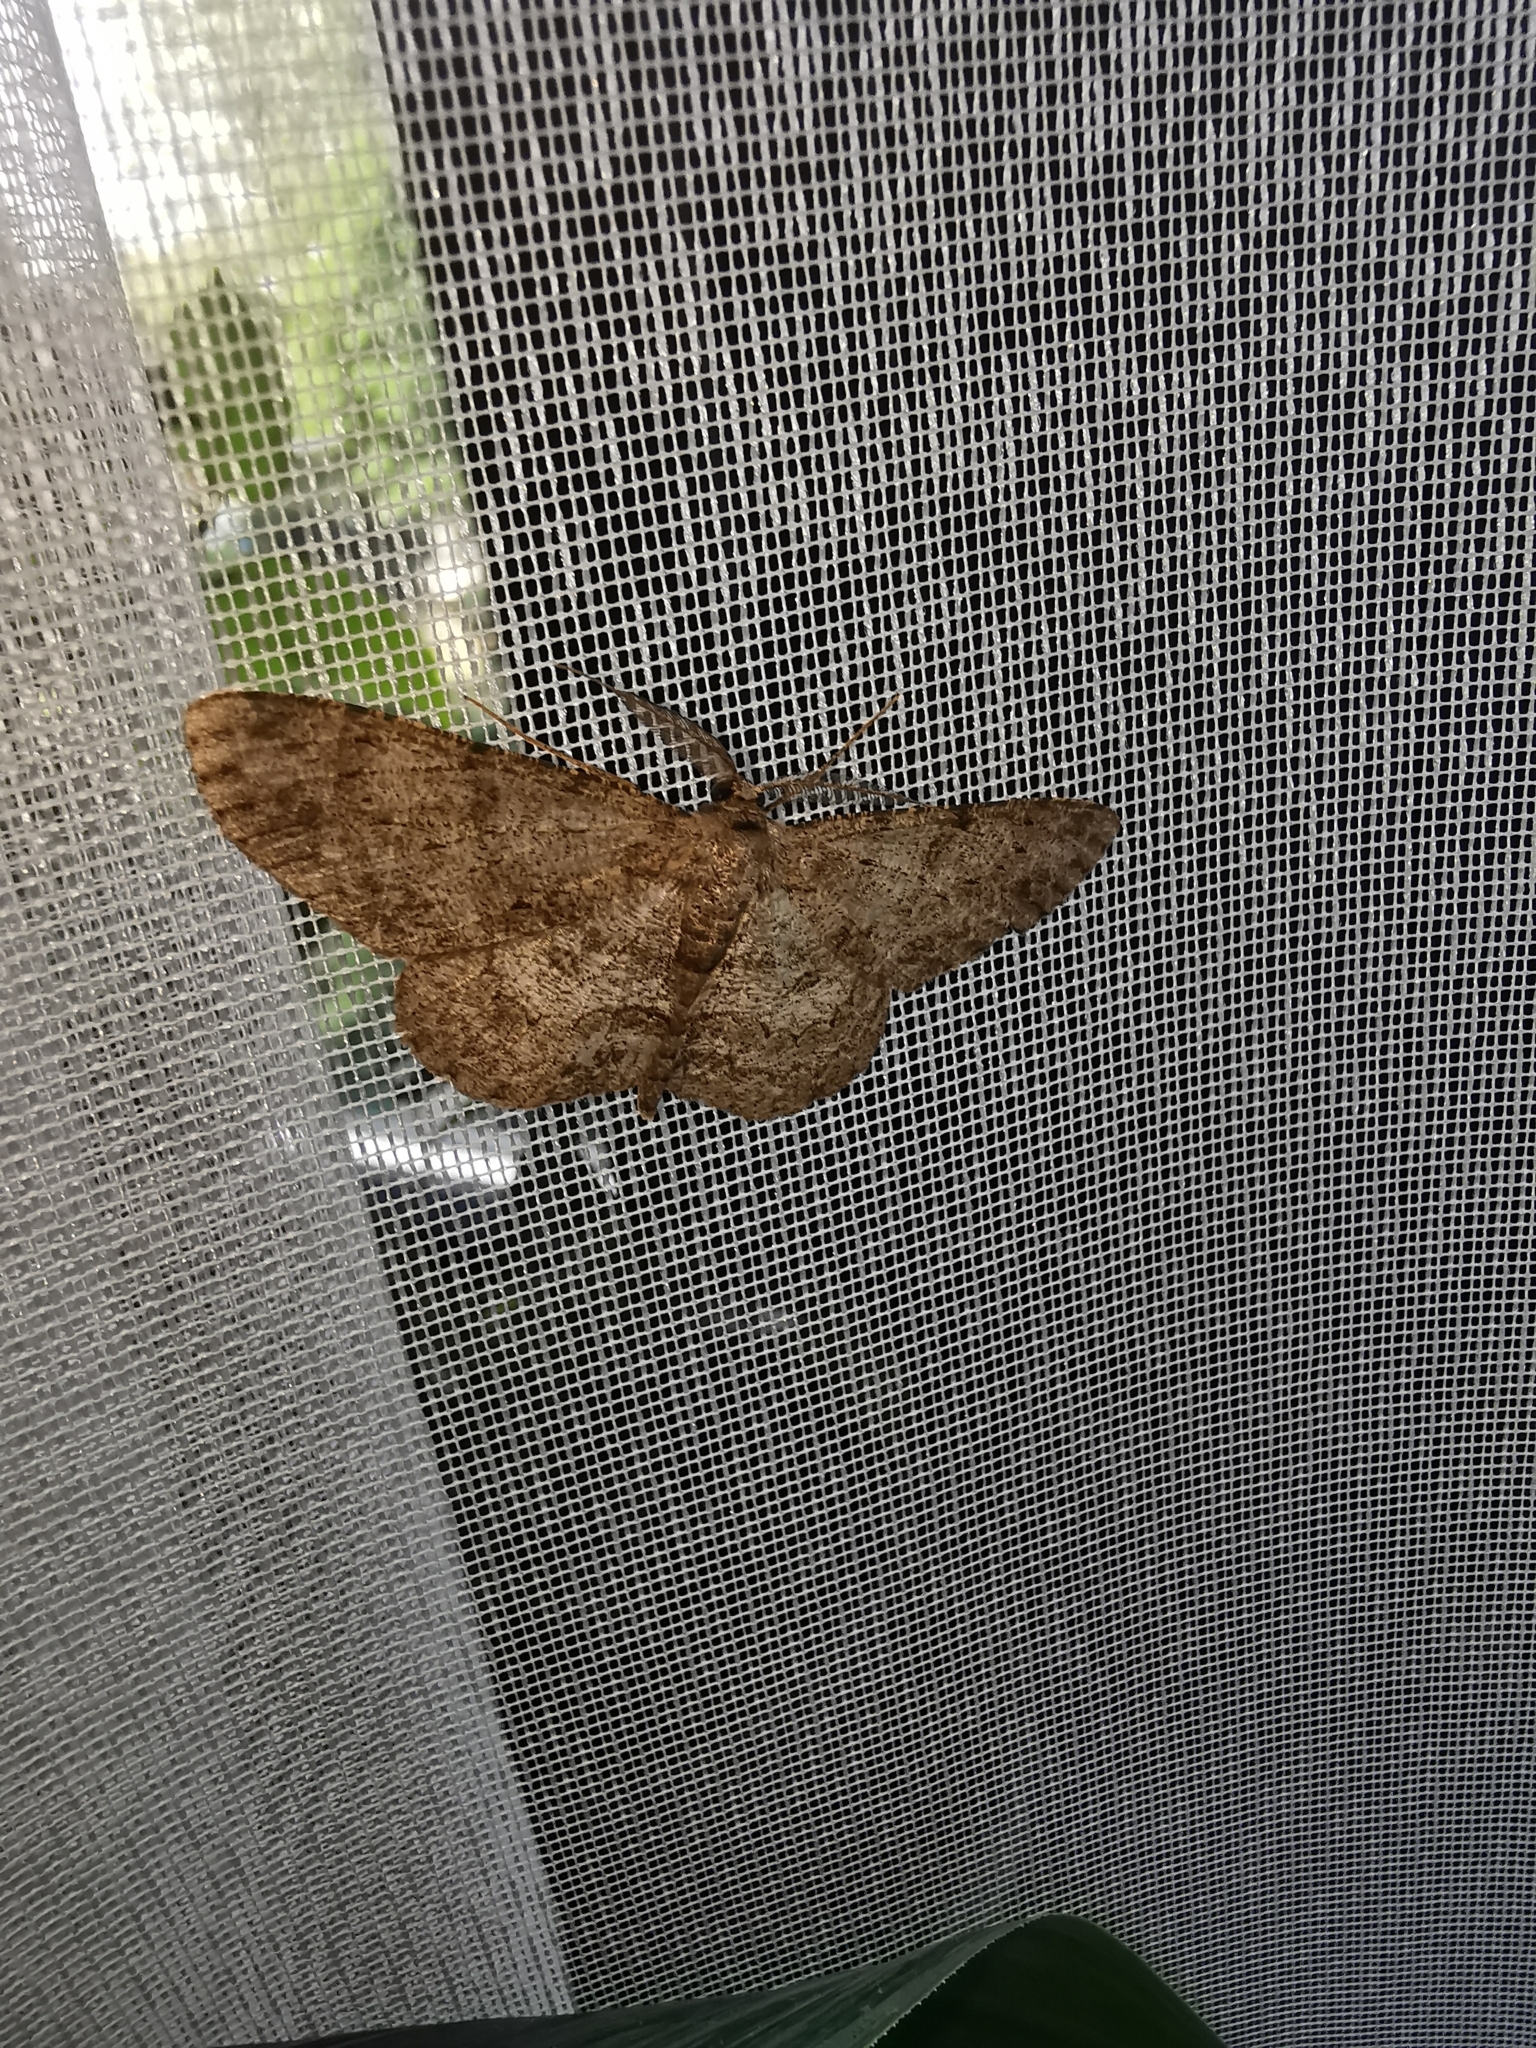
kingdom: Animalia
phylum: Arthropoda
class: Insecta
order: Lepidoptera
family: Geometridae
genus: Hypomecis
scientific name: Hypomecis punctinalis
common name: Pale oak beauty
